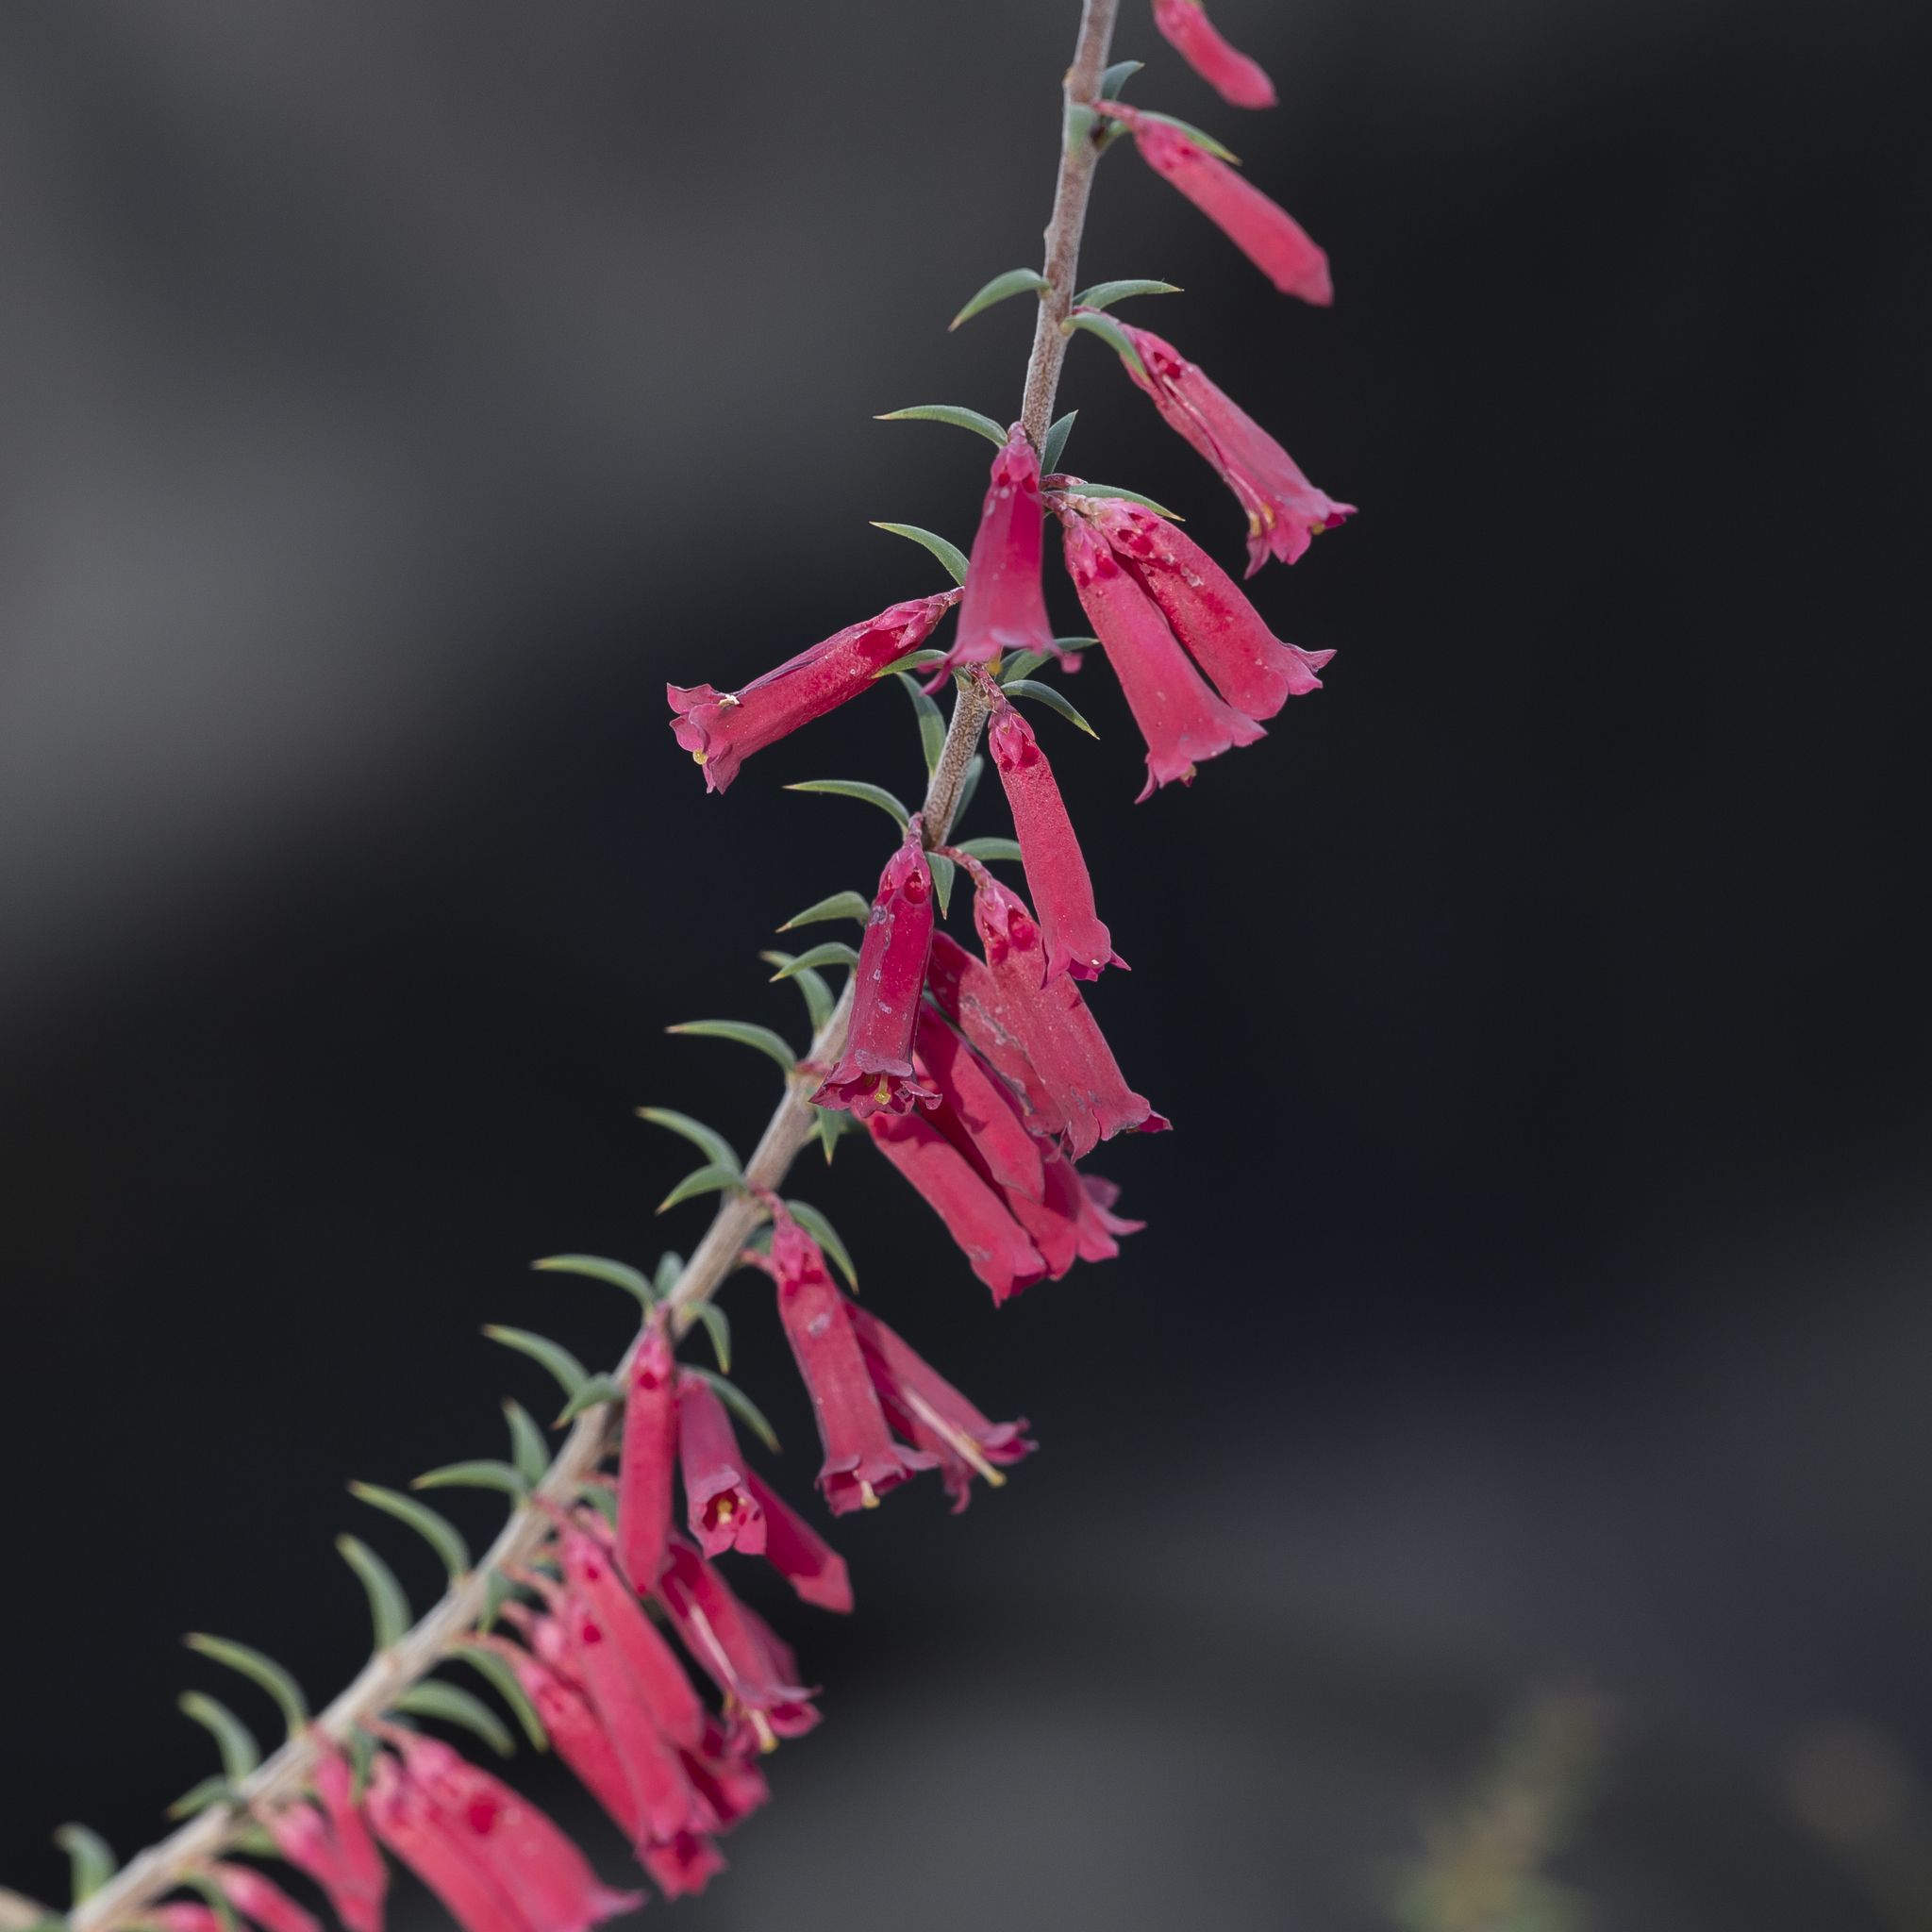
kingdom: Plantae
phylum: Tracheophyta
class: Magnoliopsida
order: Ericales
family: Ericaceae
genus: Epacris
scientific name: Epacris impressa
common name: Common-heath
